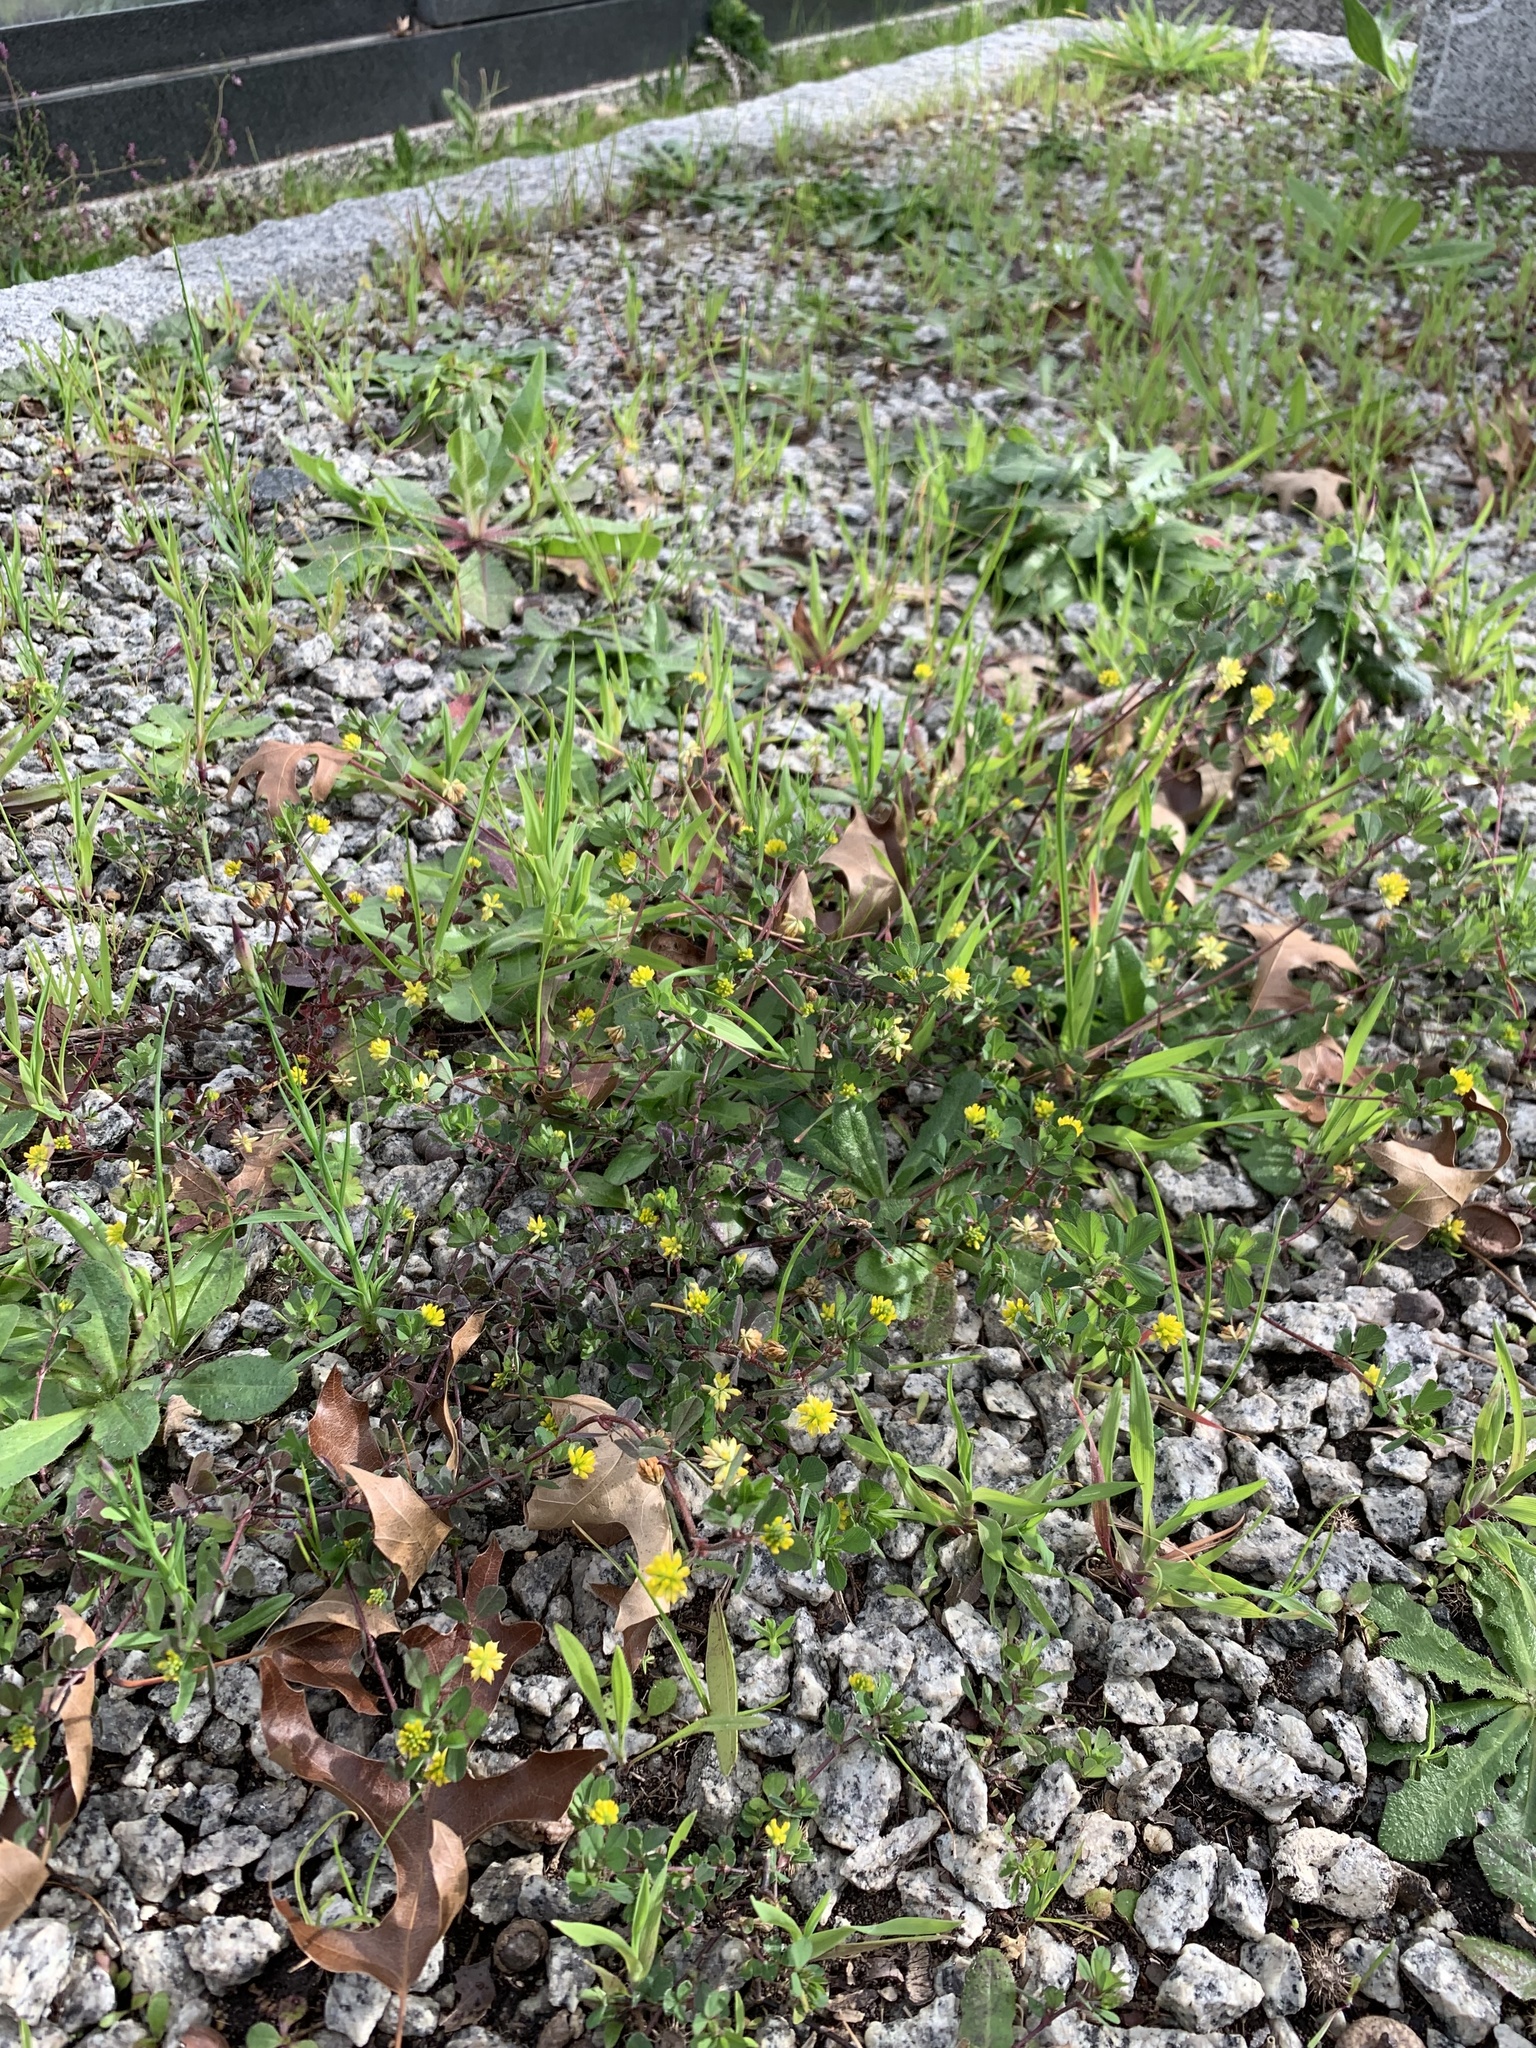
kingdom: Plantae
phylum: Tracheophyta
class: Magnoliopsida
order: Fabales
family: Fabaceae
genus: Trifolium
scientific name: Trifolium dubium
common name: Suckling clover
